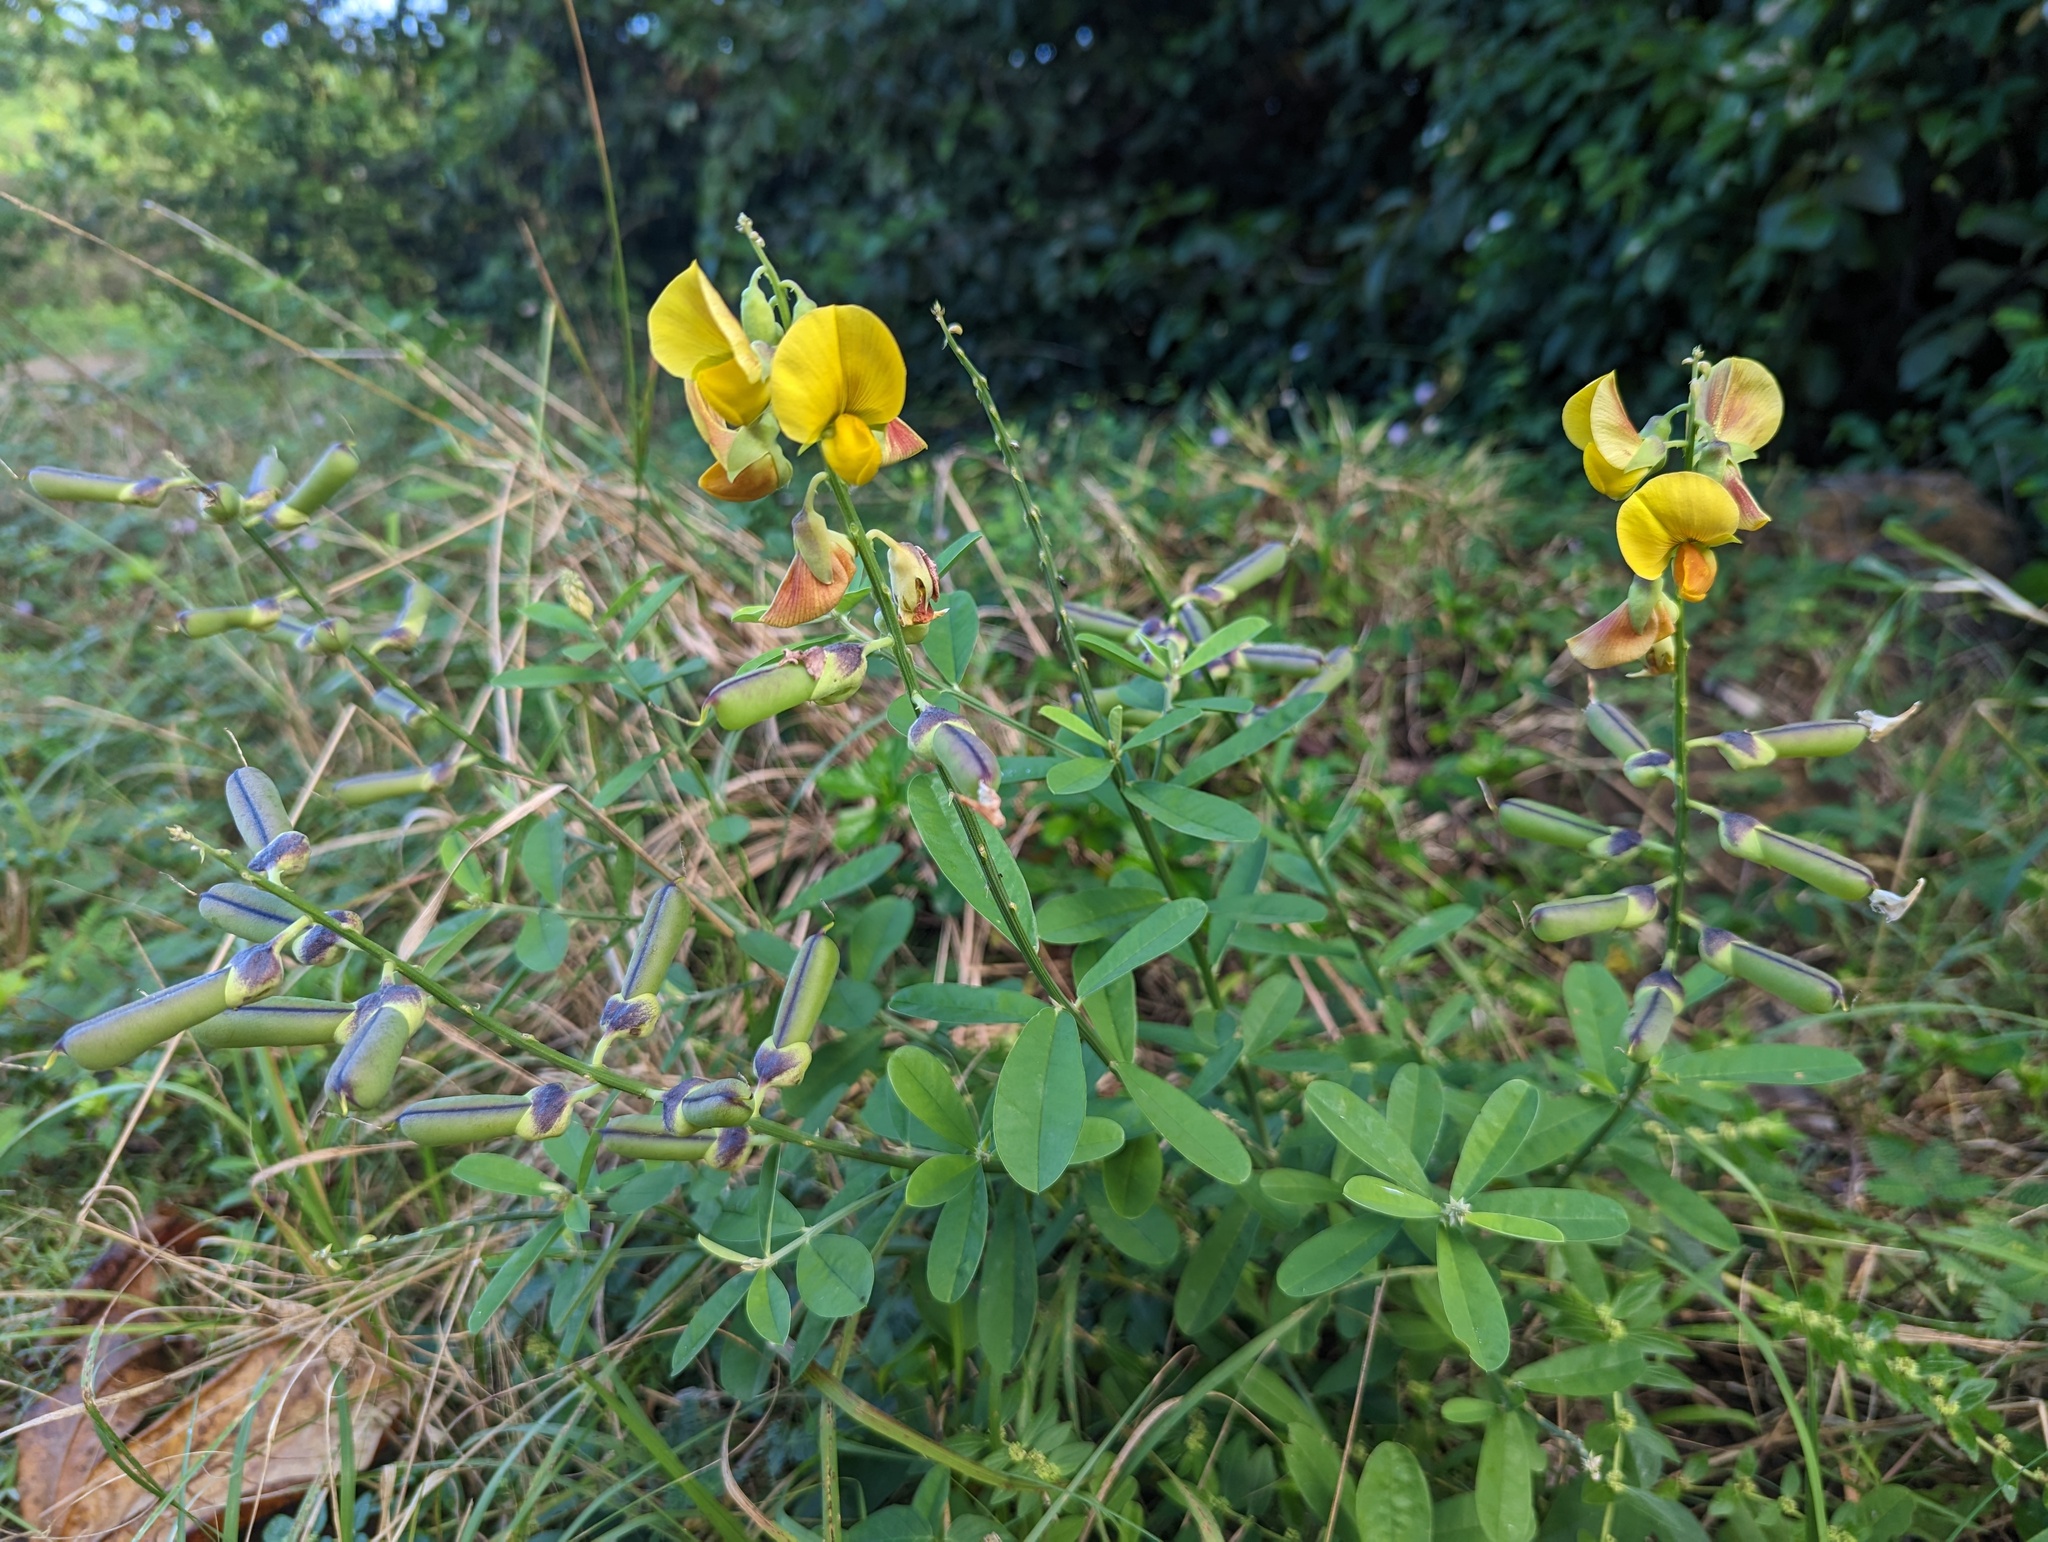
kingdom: Plantae
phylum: Tracheophyta
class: Magnoliopsida
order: Fabales
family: Fabaceae
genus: Crotalaria
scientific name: Crotalaria retusa
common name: Rattleweed
